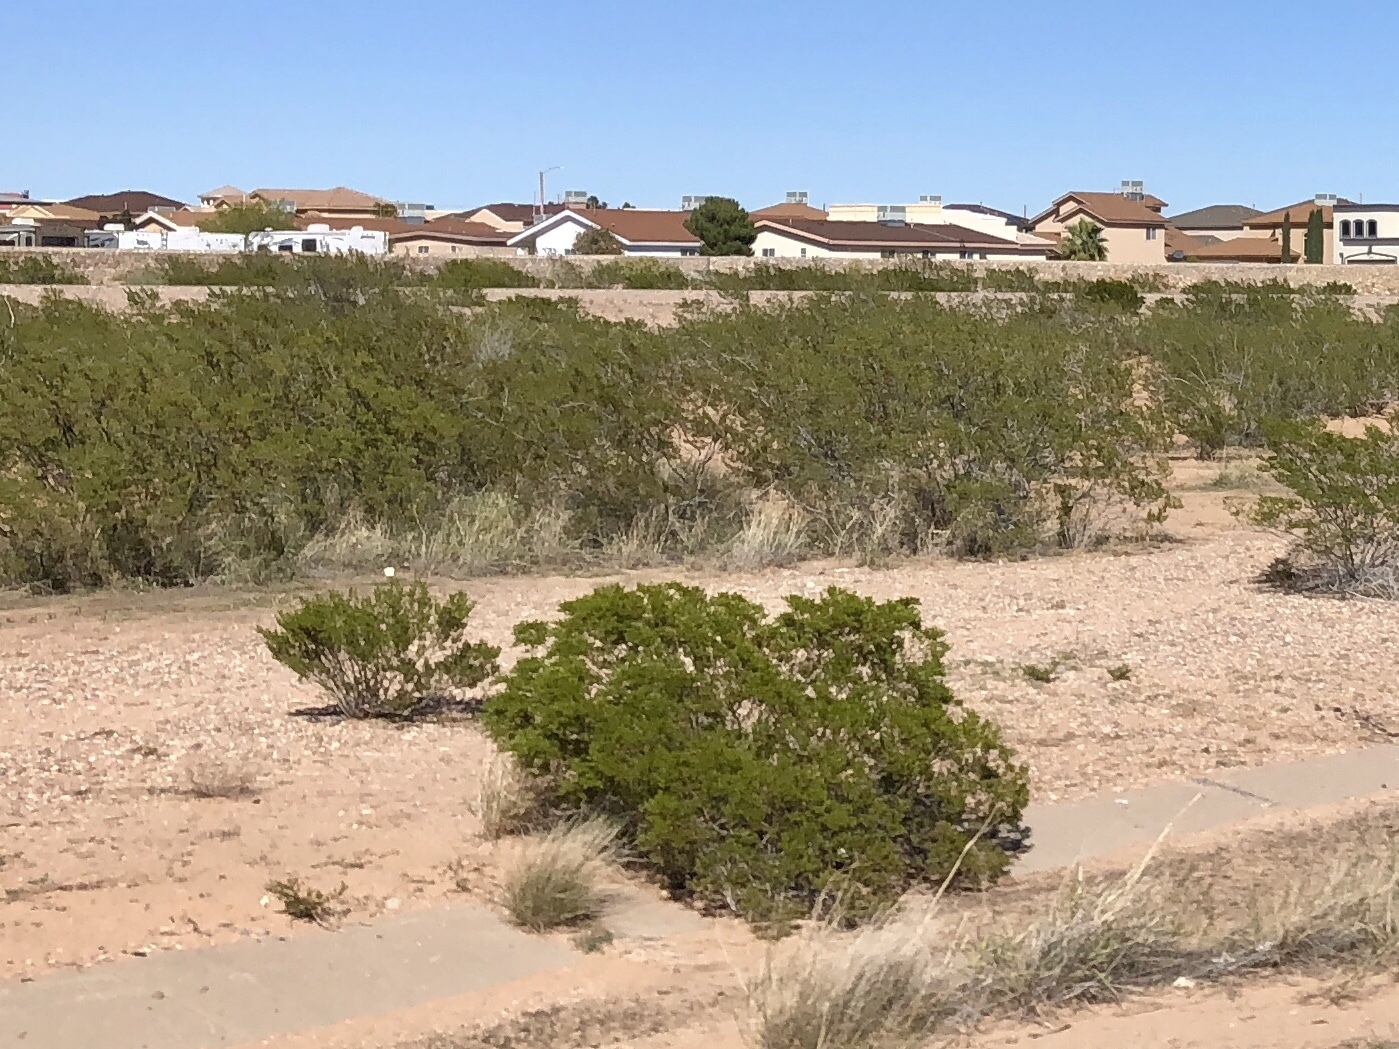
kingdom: Plantae
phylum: Tracheophyta
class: Magnoliopsida
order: Zygophyllales
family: Zygophyllaceae
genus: Larrea
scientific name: Larrea tridentata
